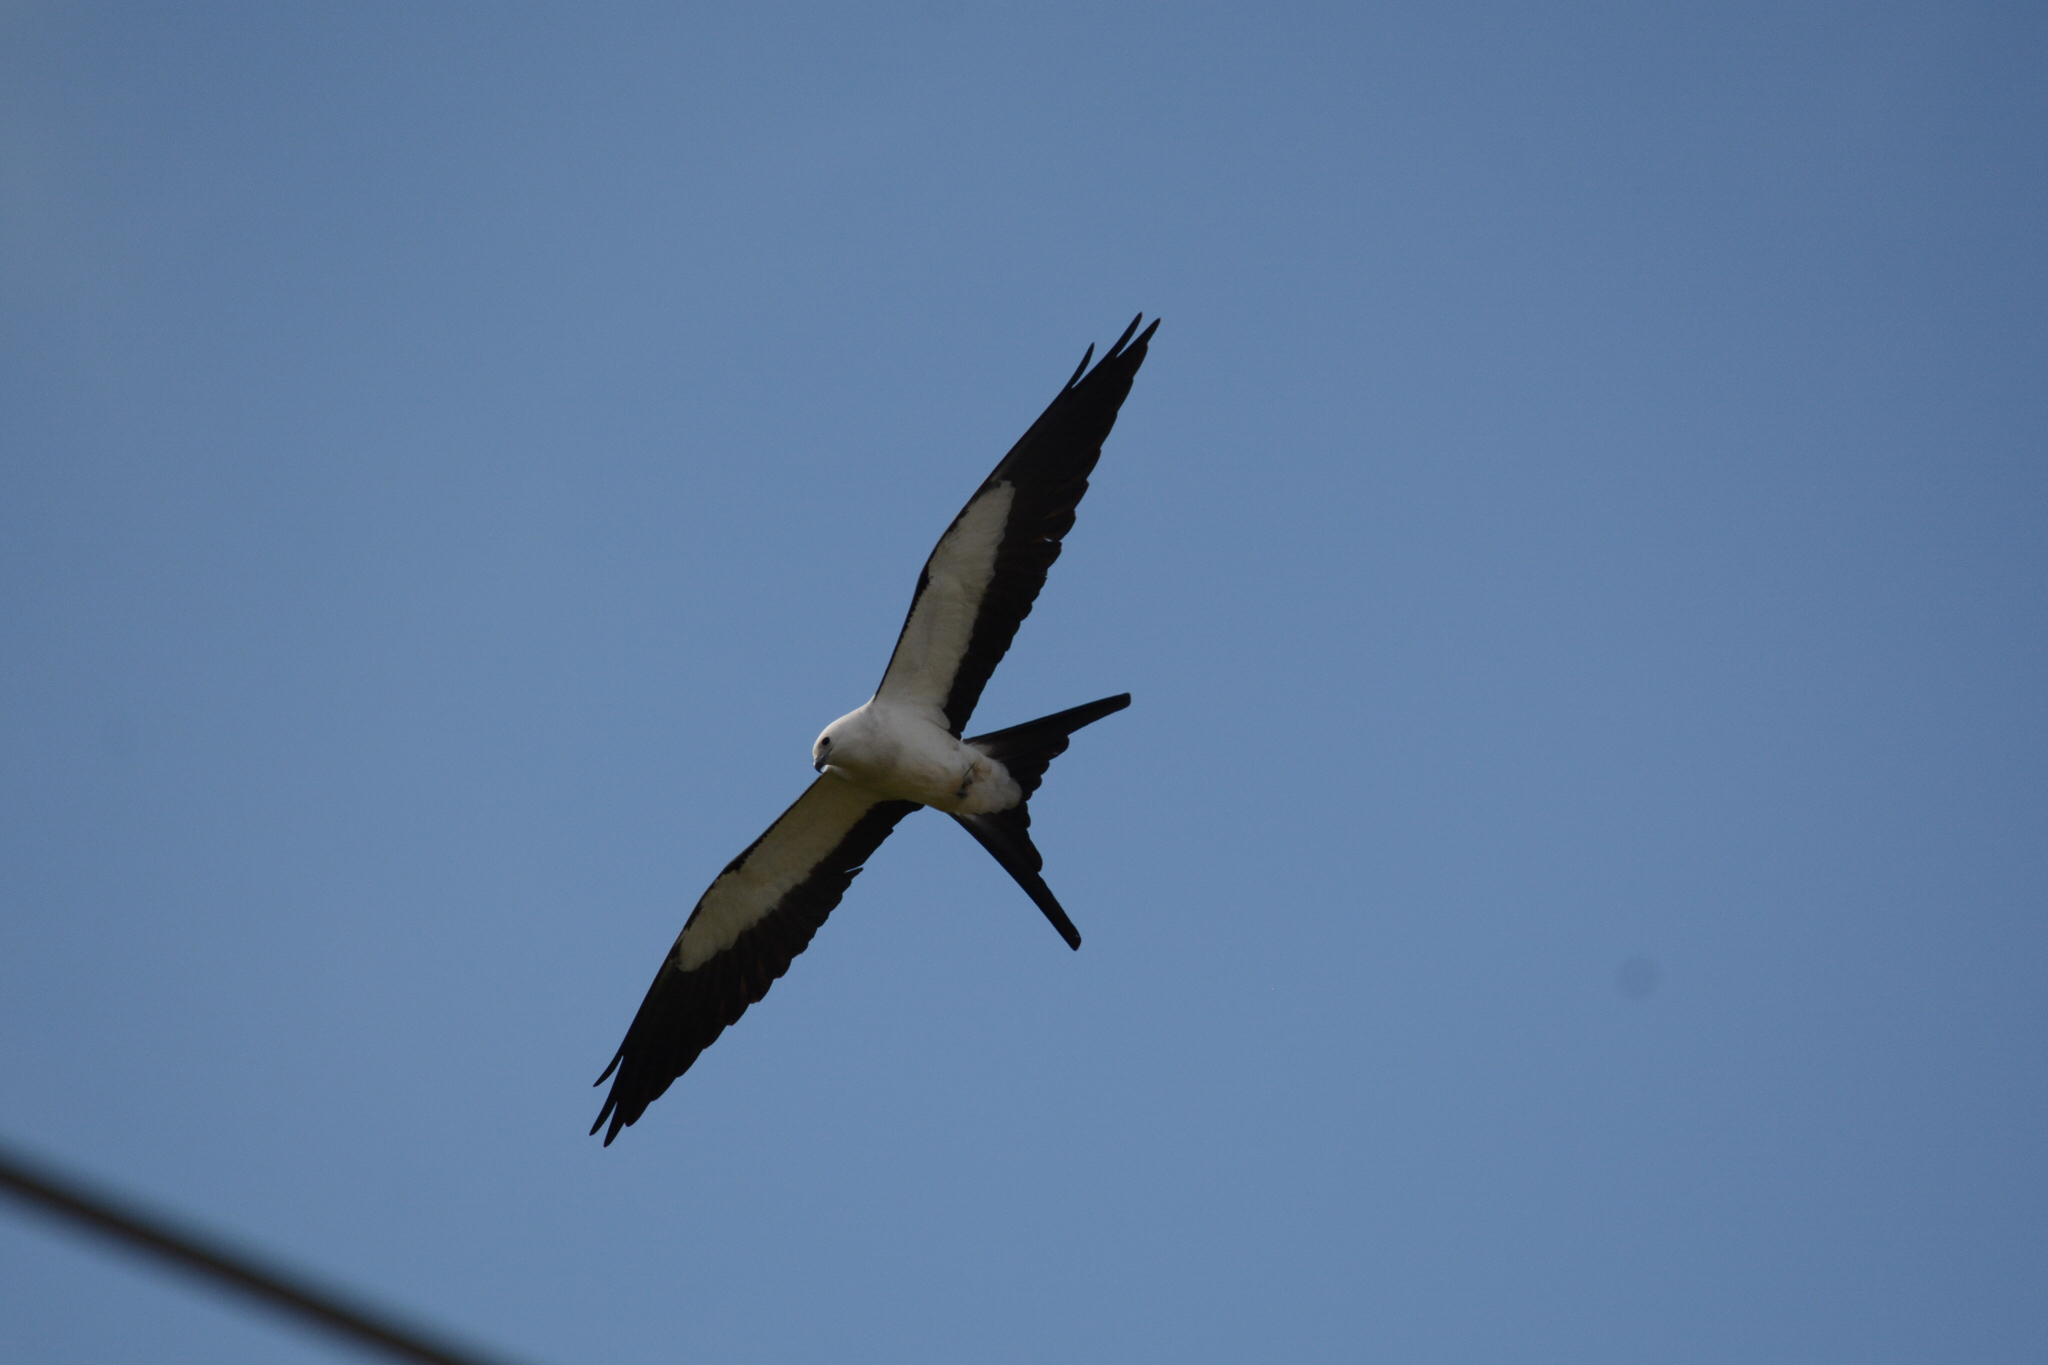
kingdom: Animalia
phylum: Chordata
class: Aves
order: Accipitriformes
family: Accipitridae
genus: Elanoides
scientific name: Elanoides forficatus
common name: Swallow-tailed kite
